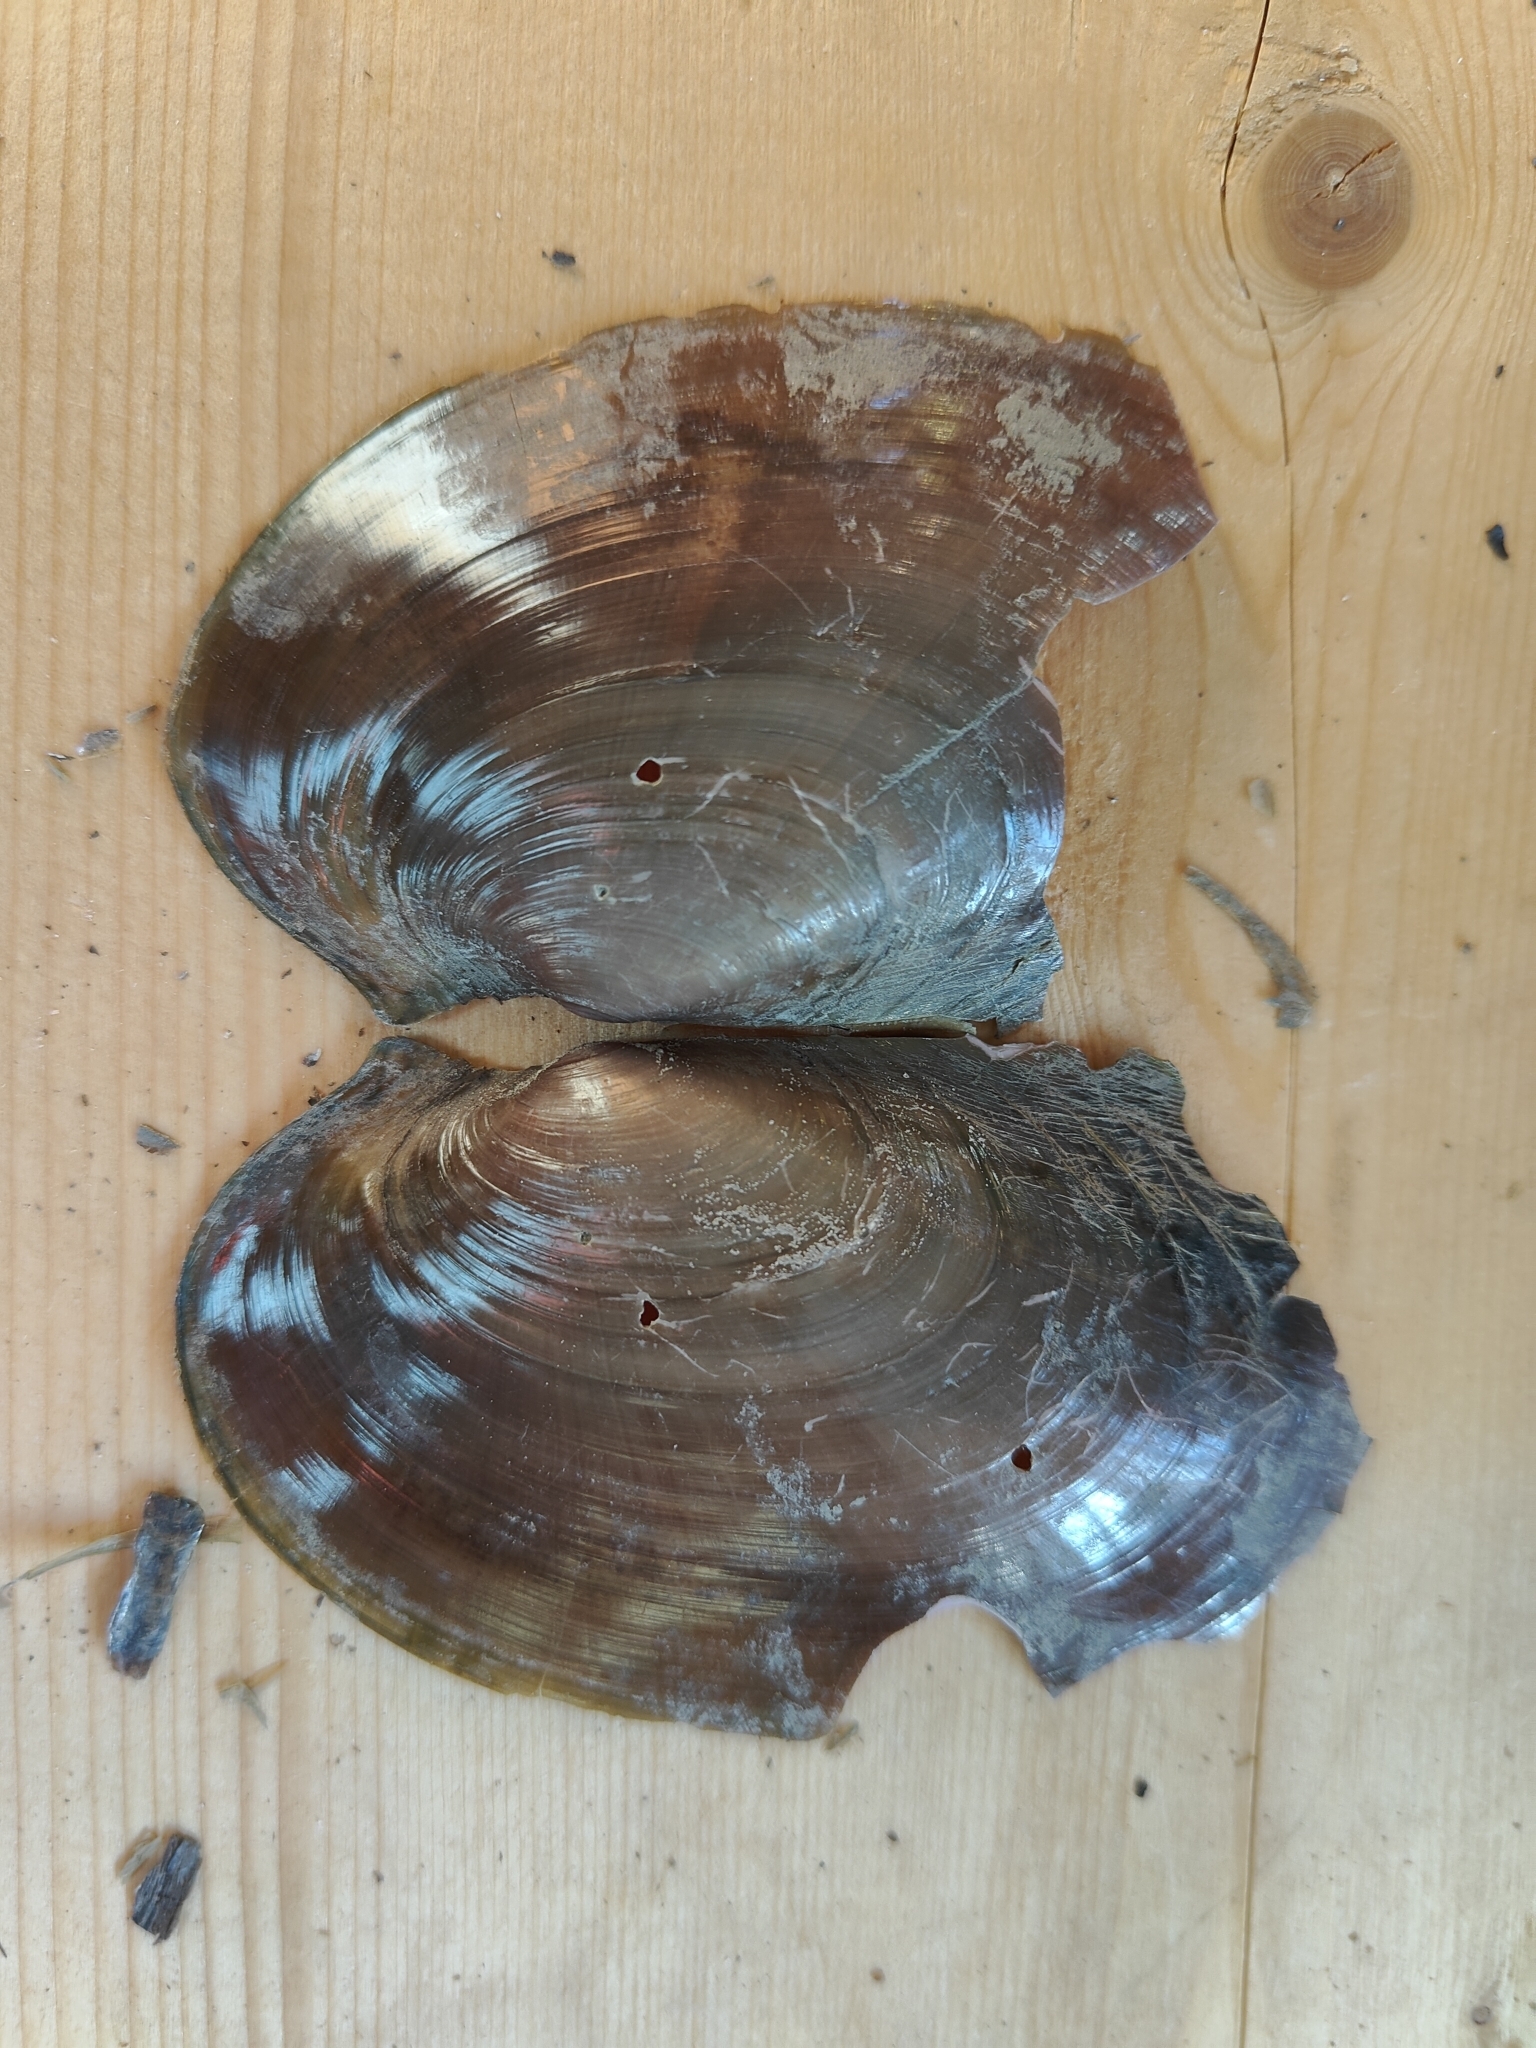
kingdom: Animalia
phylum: Mollusca
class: Bivalvia
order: Unionida
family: Unionidae
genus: Potamilus
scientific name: Potamilus ohiensis
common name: Pink papershell
